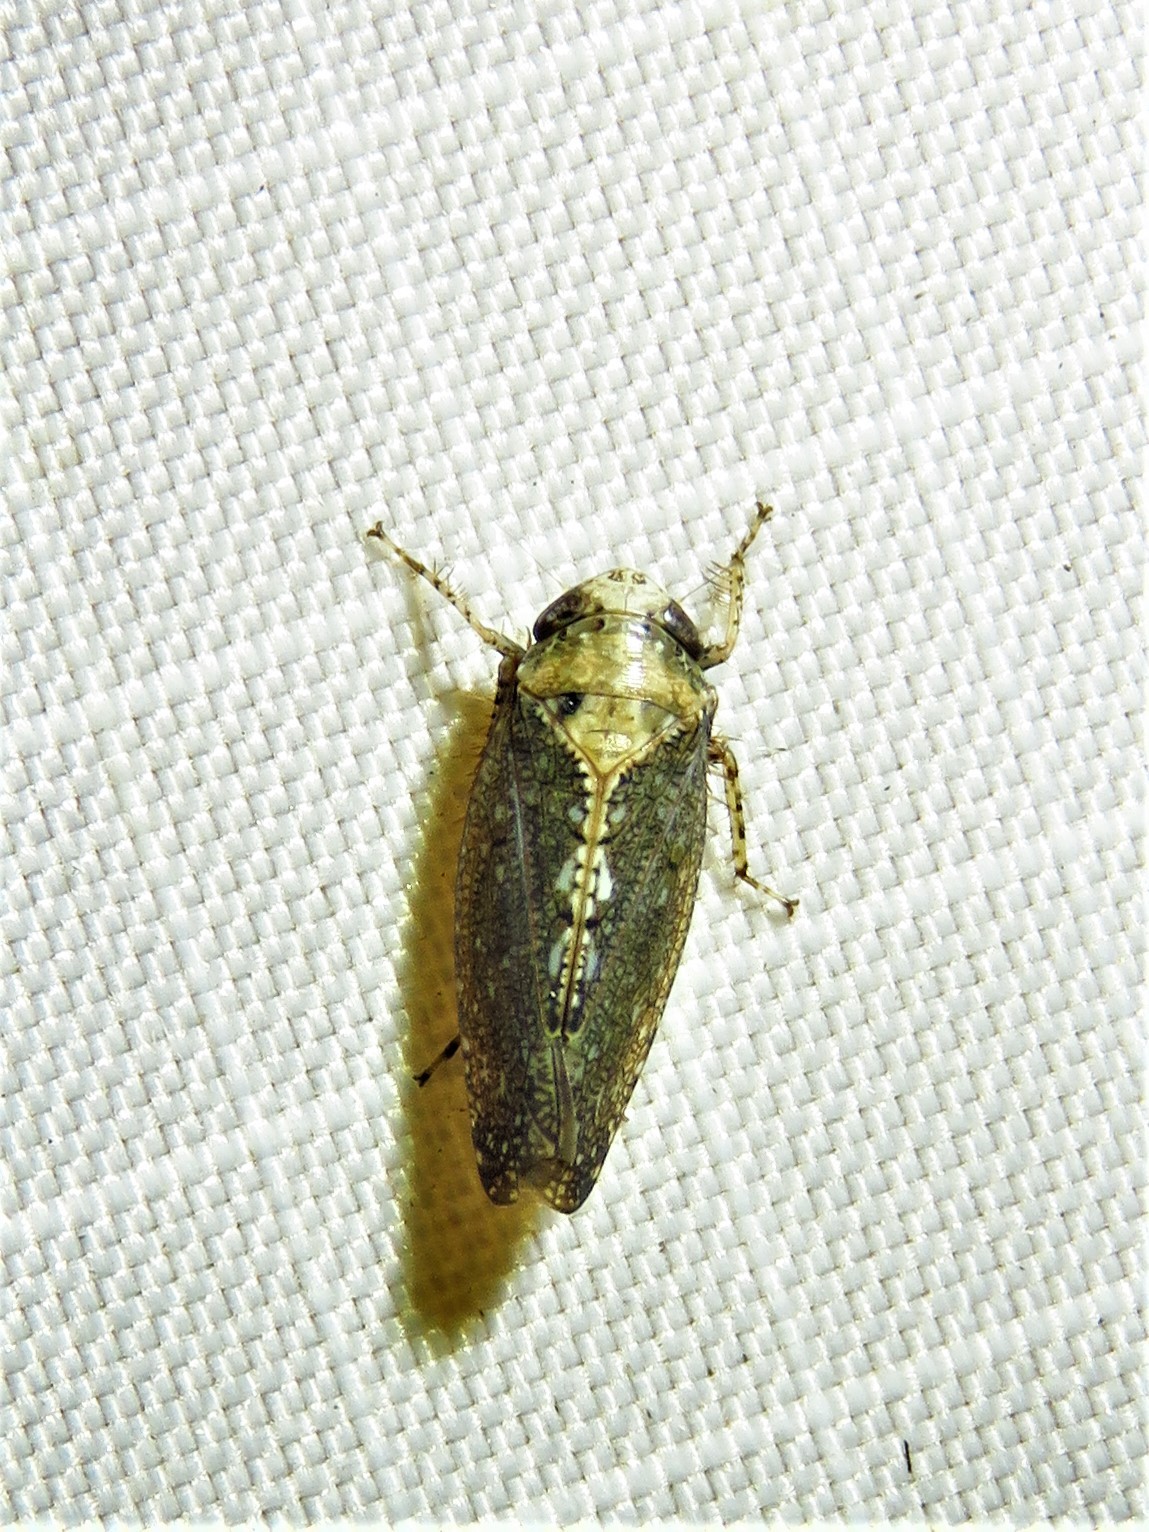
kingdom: Animalia
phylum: Arthropoda
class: Insecta
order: Hemiptera
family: Cicadellidae
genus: Excultanus
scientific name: Excultanus excultus
